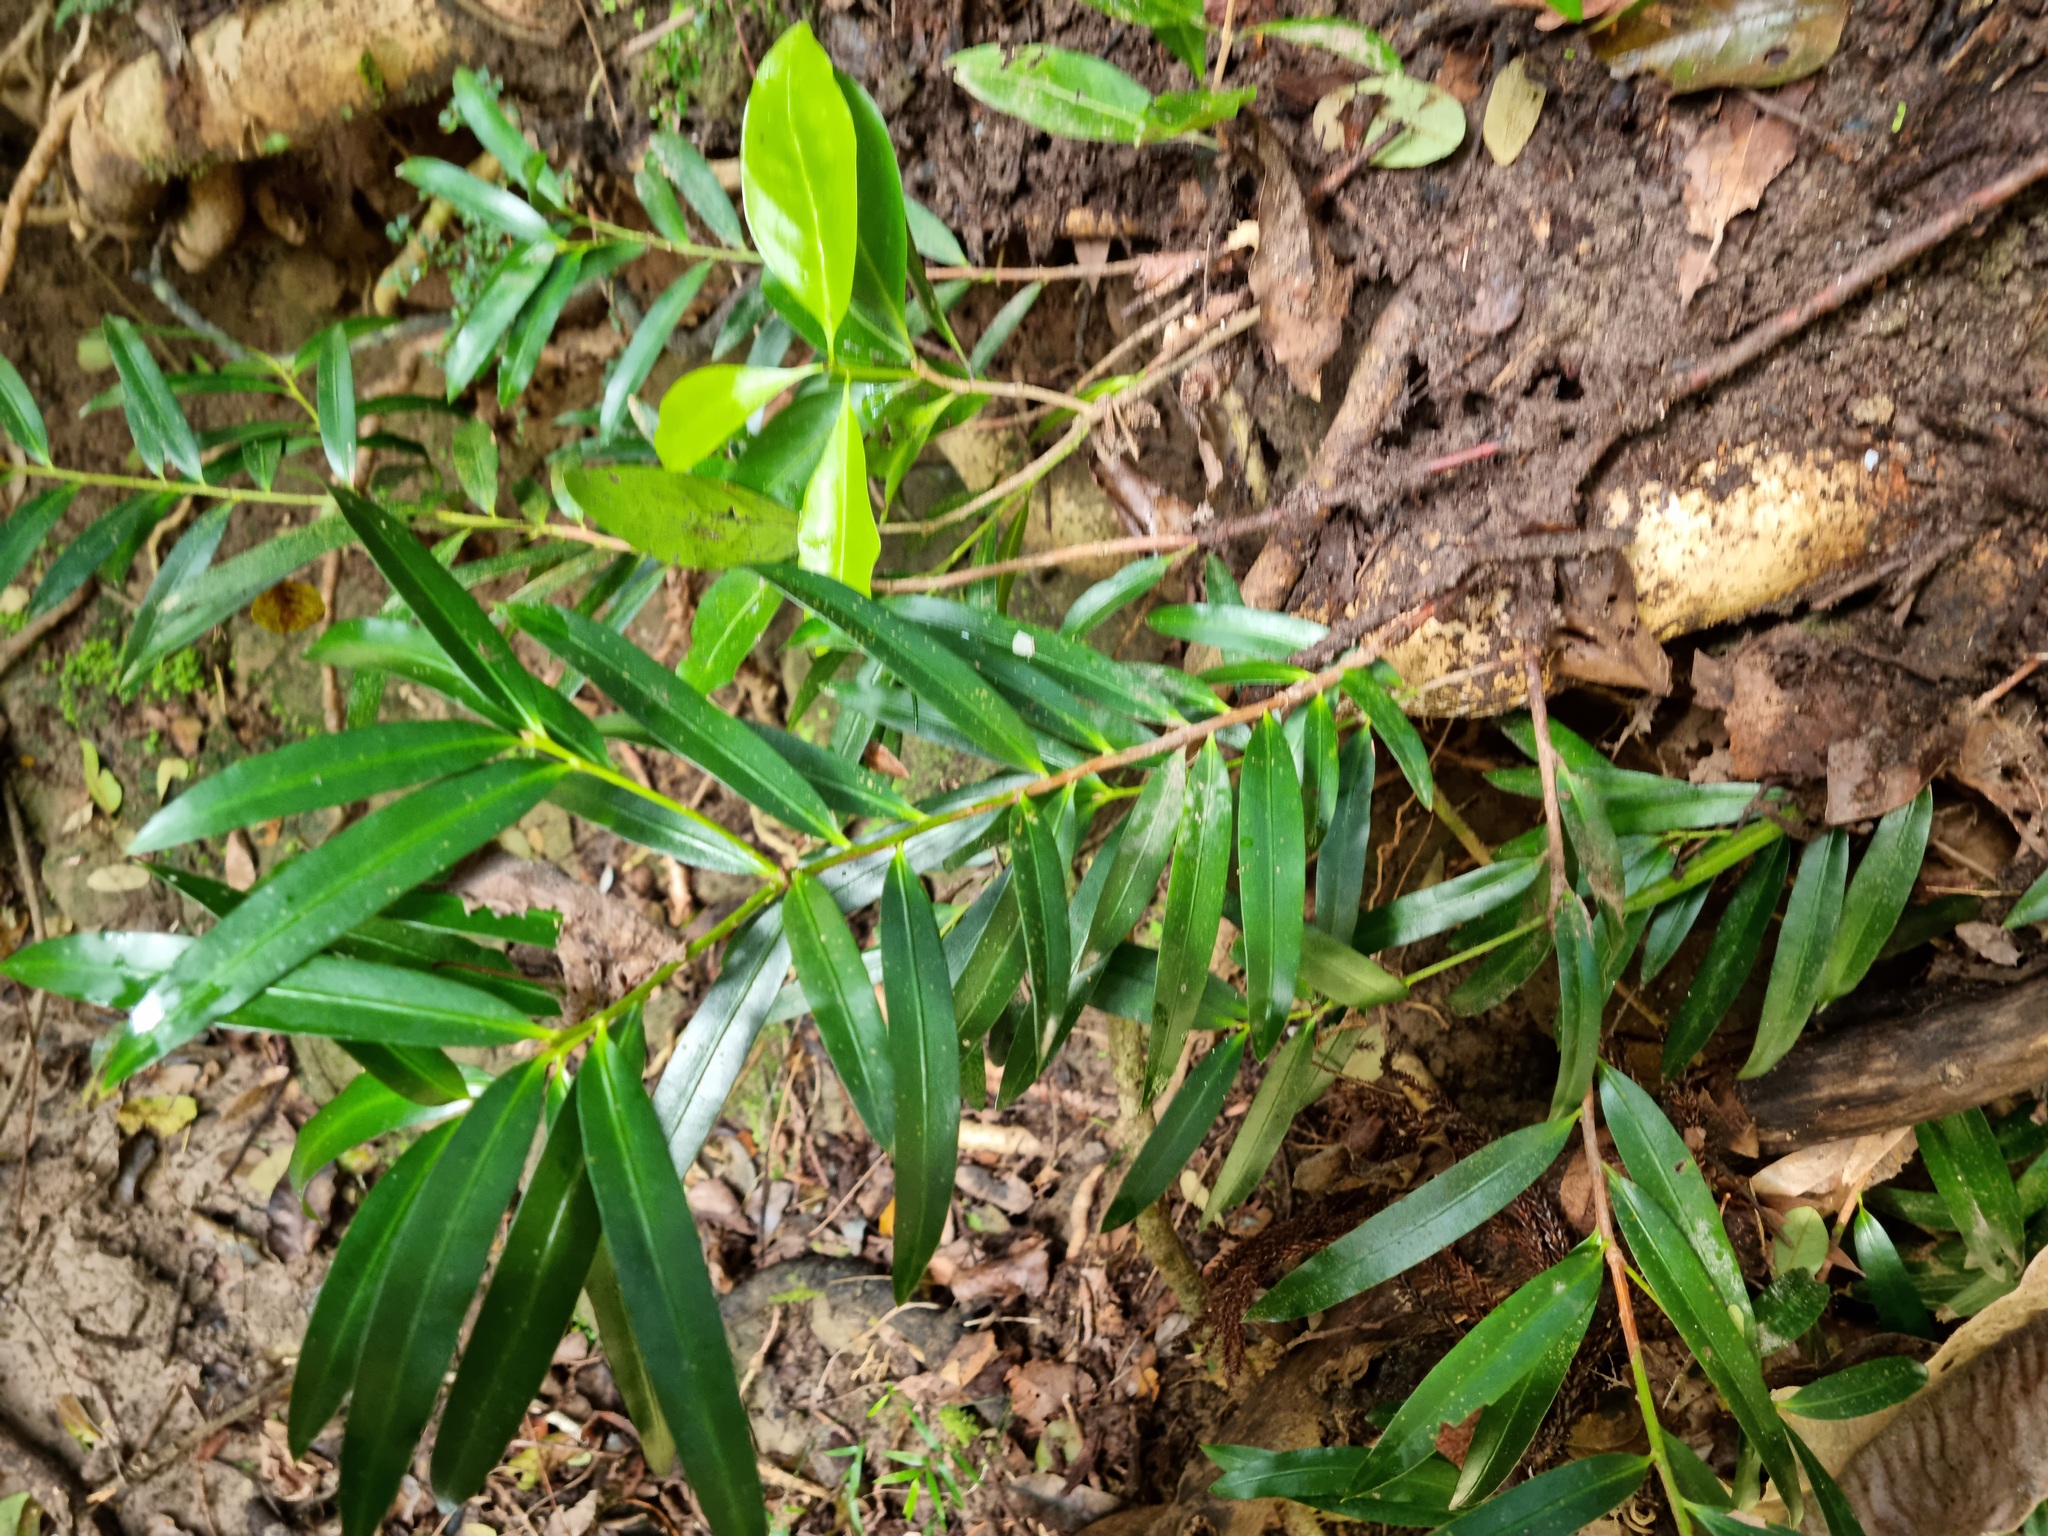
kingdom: Plantae
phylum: Tracheophyta
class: Pinopsida
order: Pinales
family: Podocarpaceae
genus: Podocarpus
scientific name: Podocarpus elatus
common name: Plum pine
